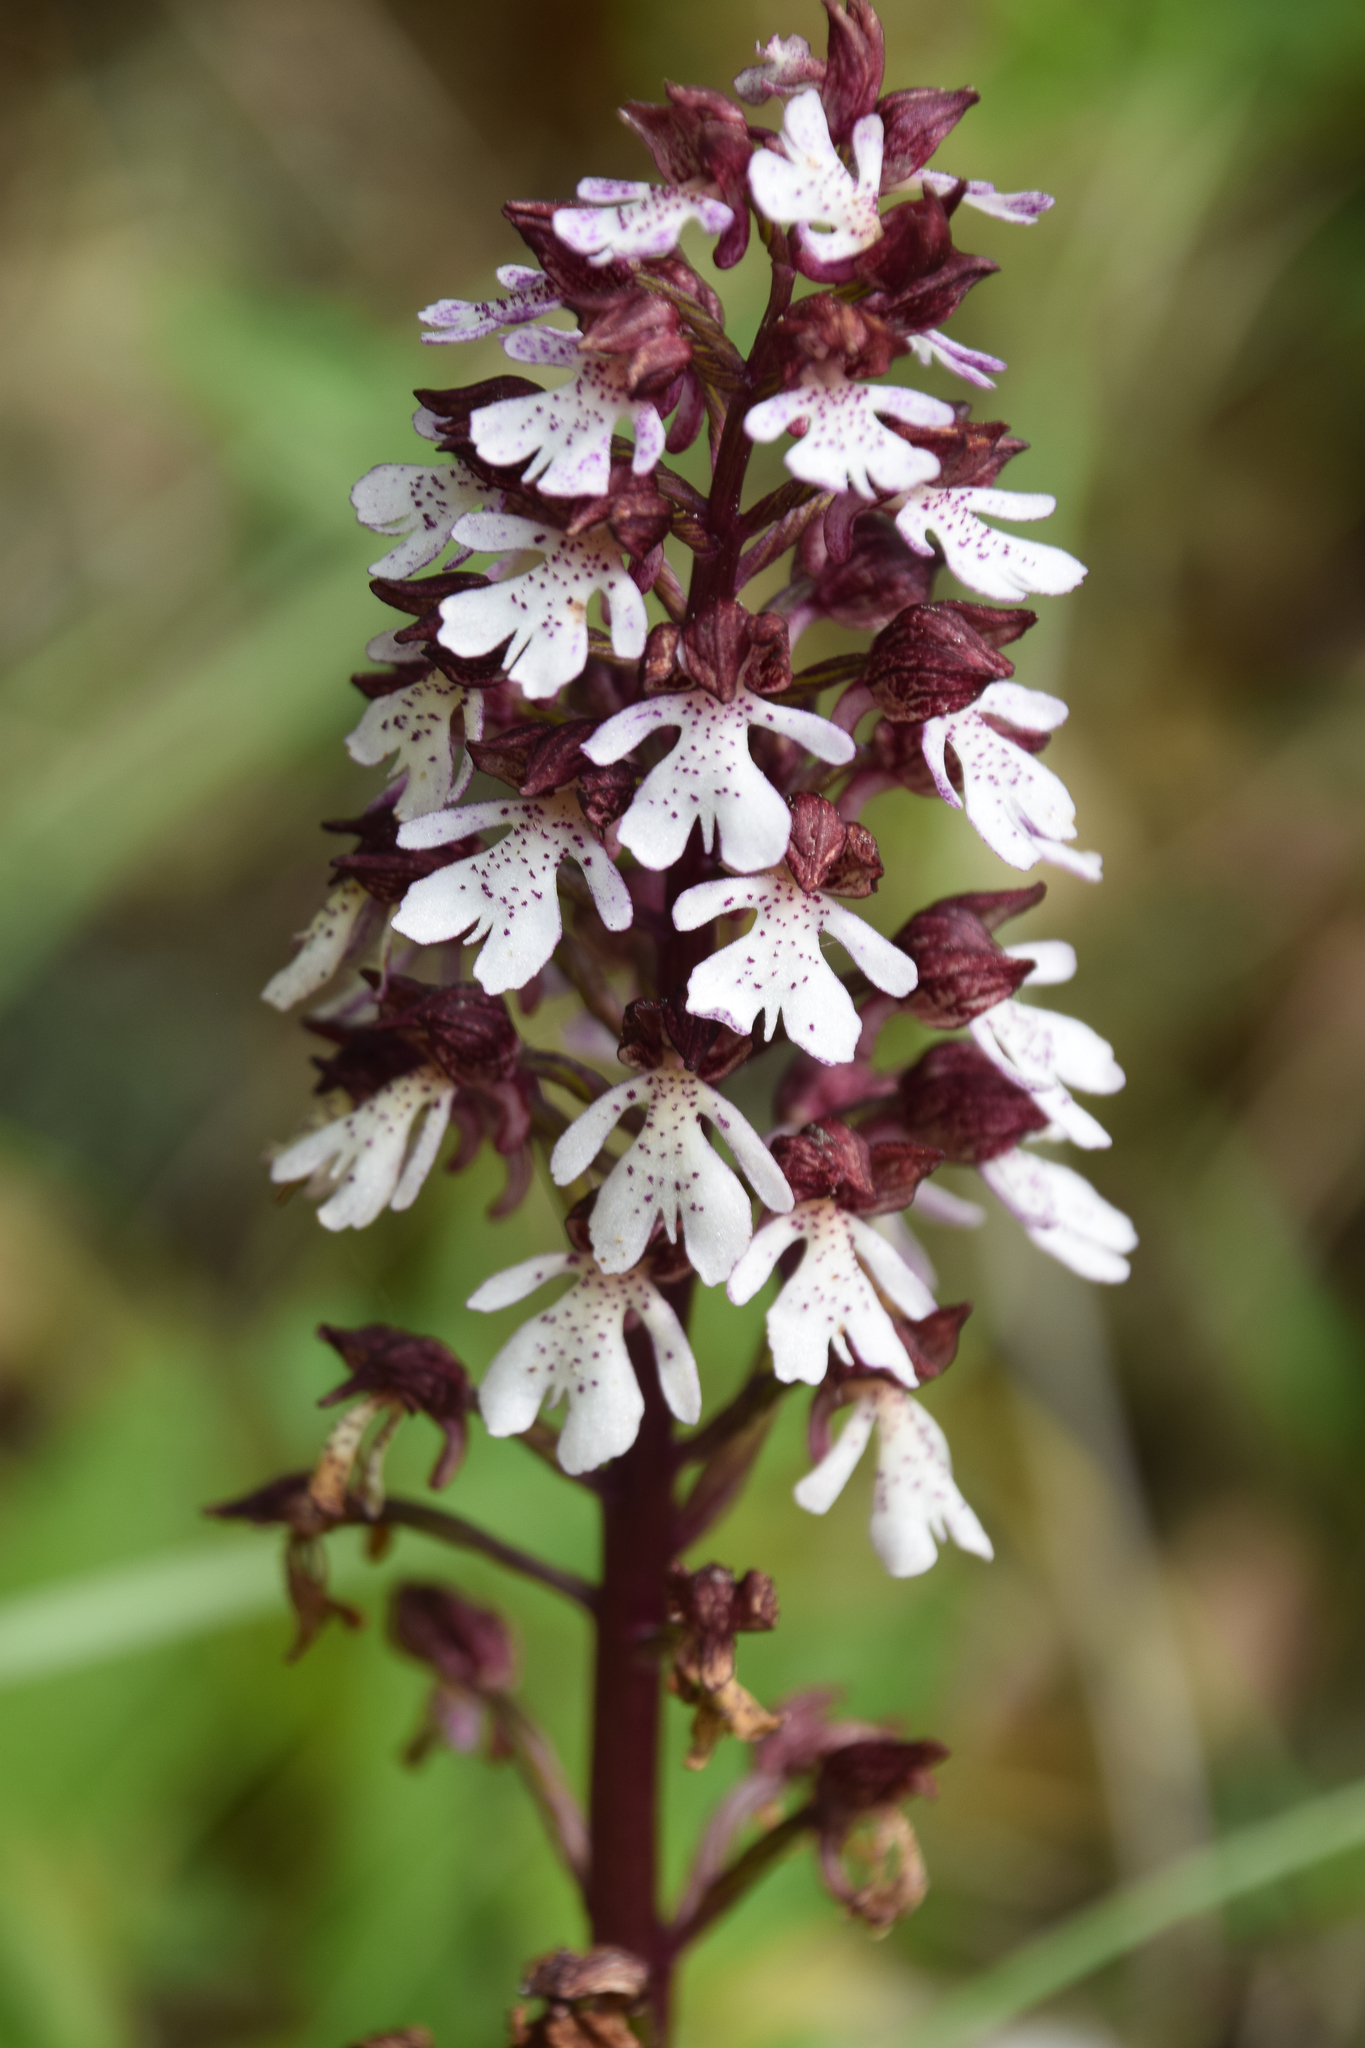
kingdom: Plantae
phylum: Tracheophyta
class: Liliopsida
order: Asparagales
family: Orchidaceae
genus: Orchis
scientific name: Orchis purpurea
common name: Lady orchid
